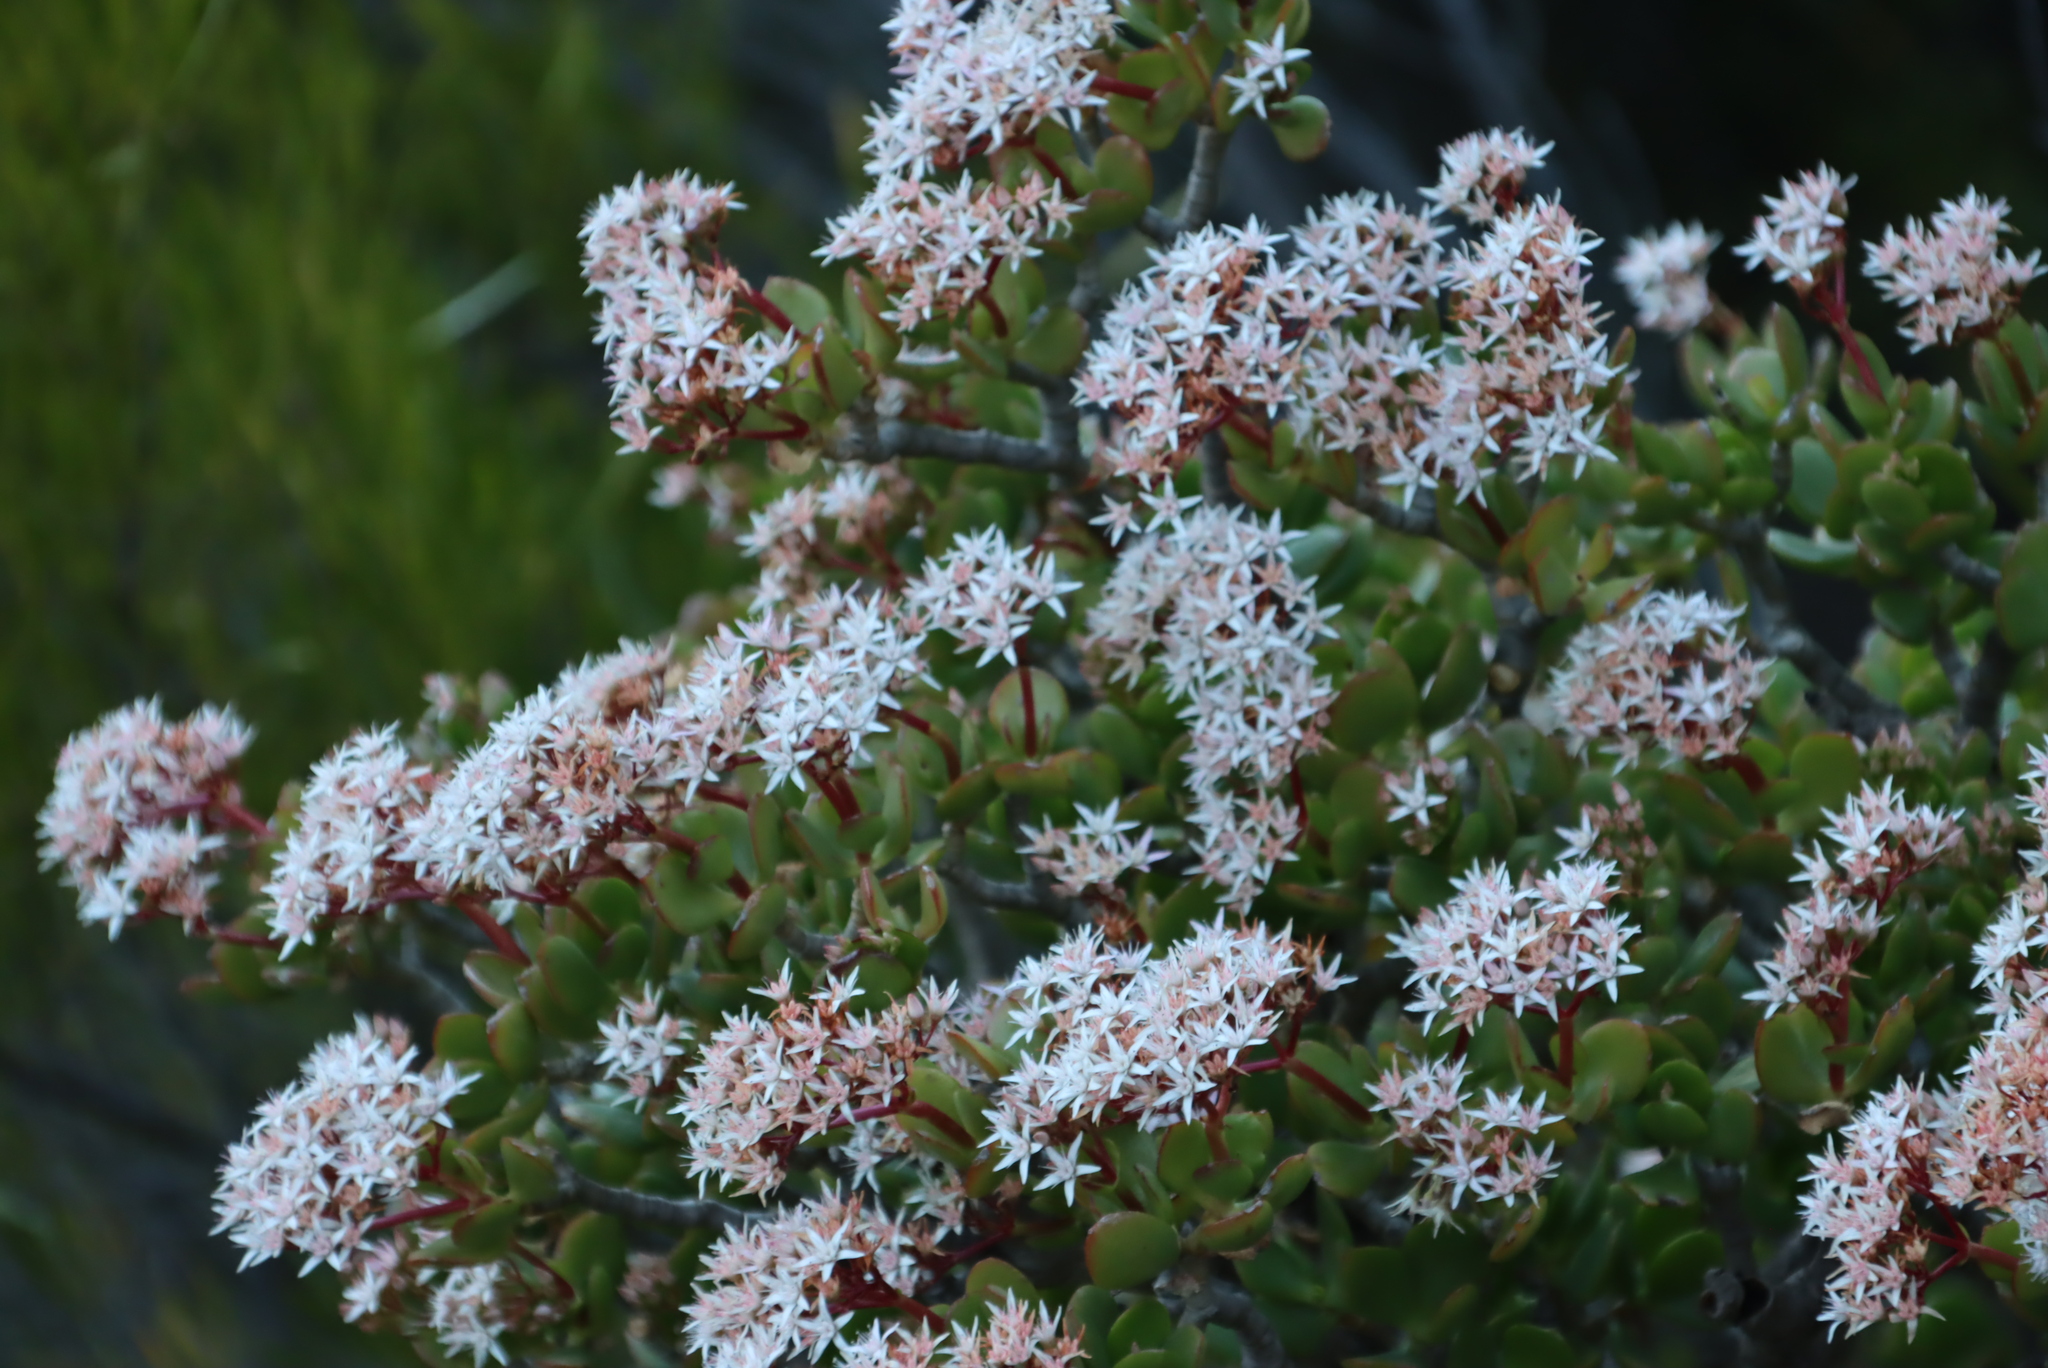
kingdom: Plantae
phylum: Tracheophyta
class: Magnoliopsida
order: Saxifragales
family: Crassulaceae
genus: Crassula
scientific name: Crassula arborescens
